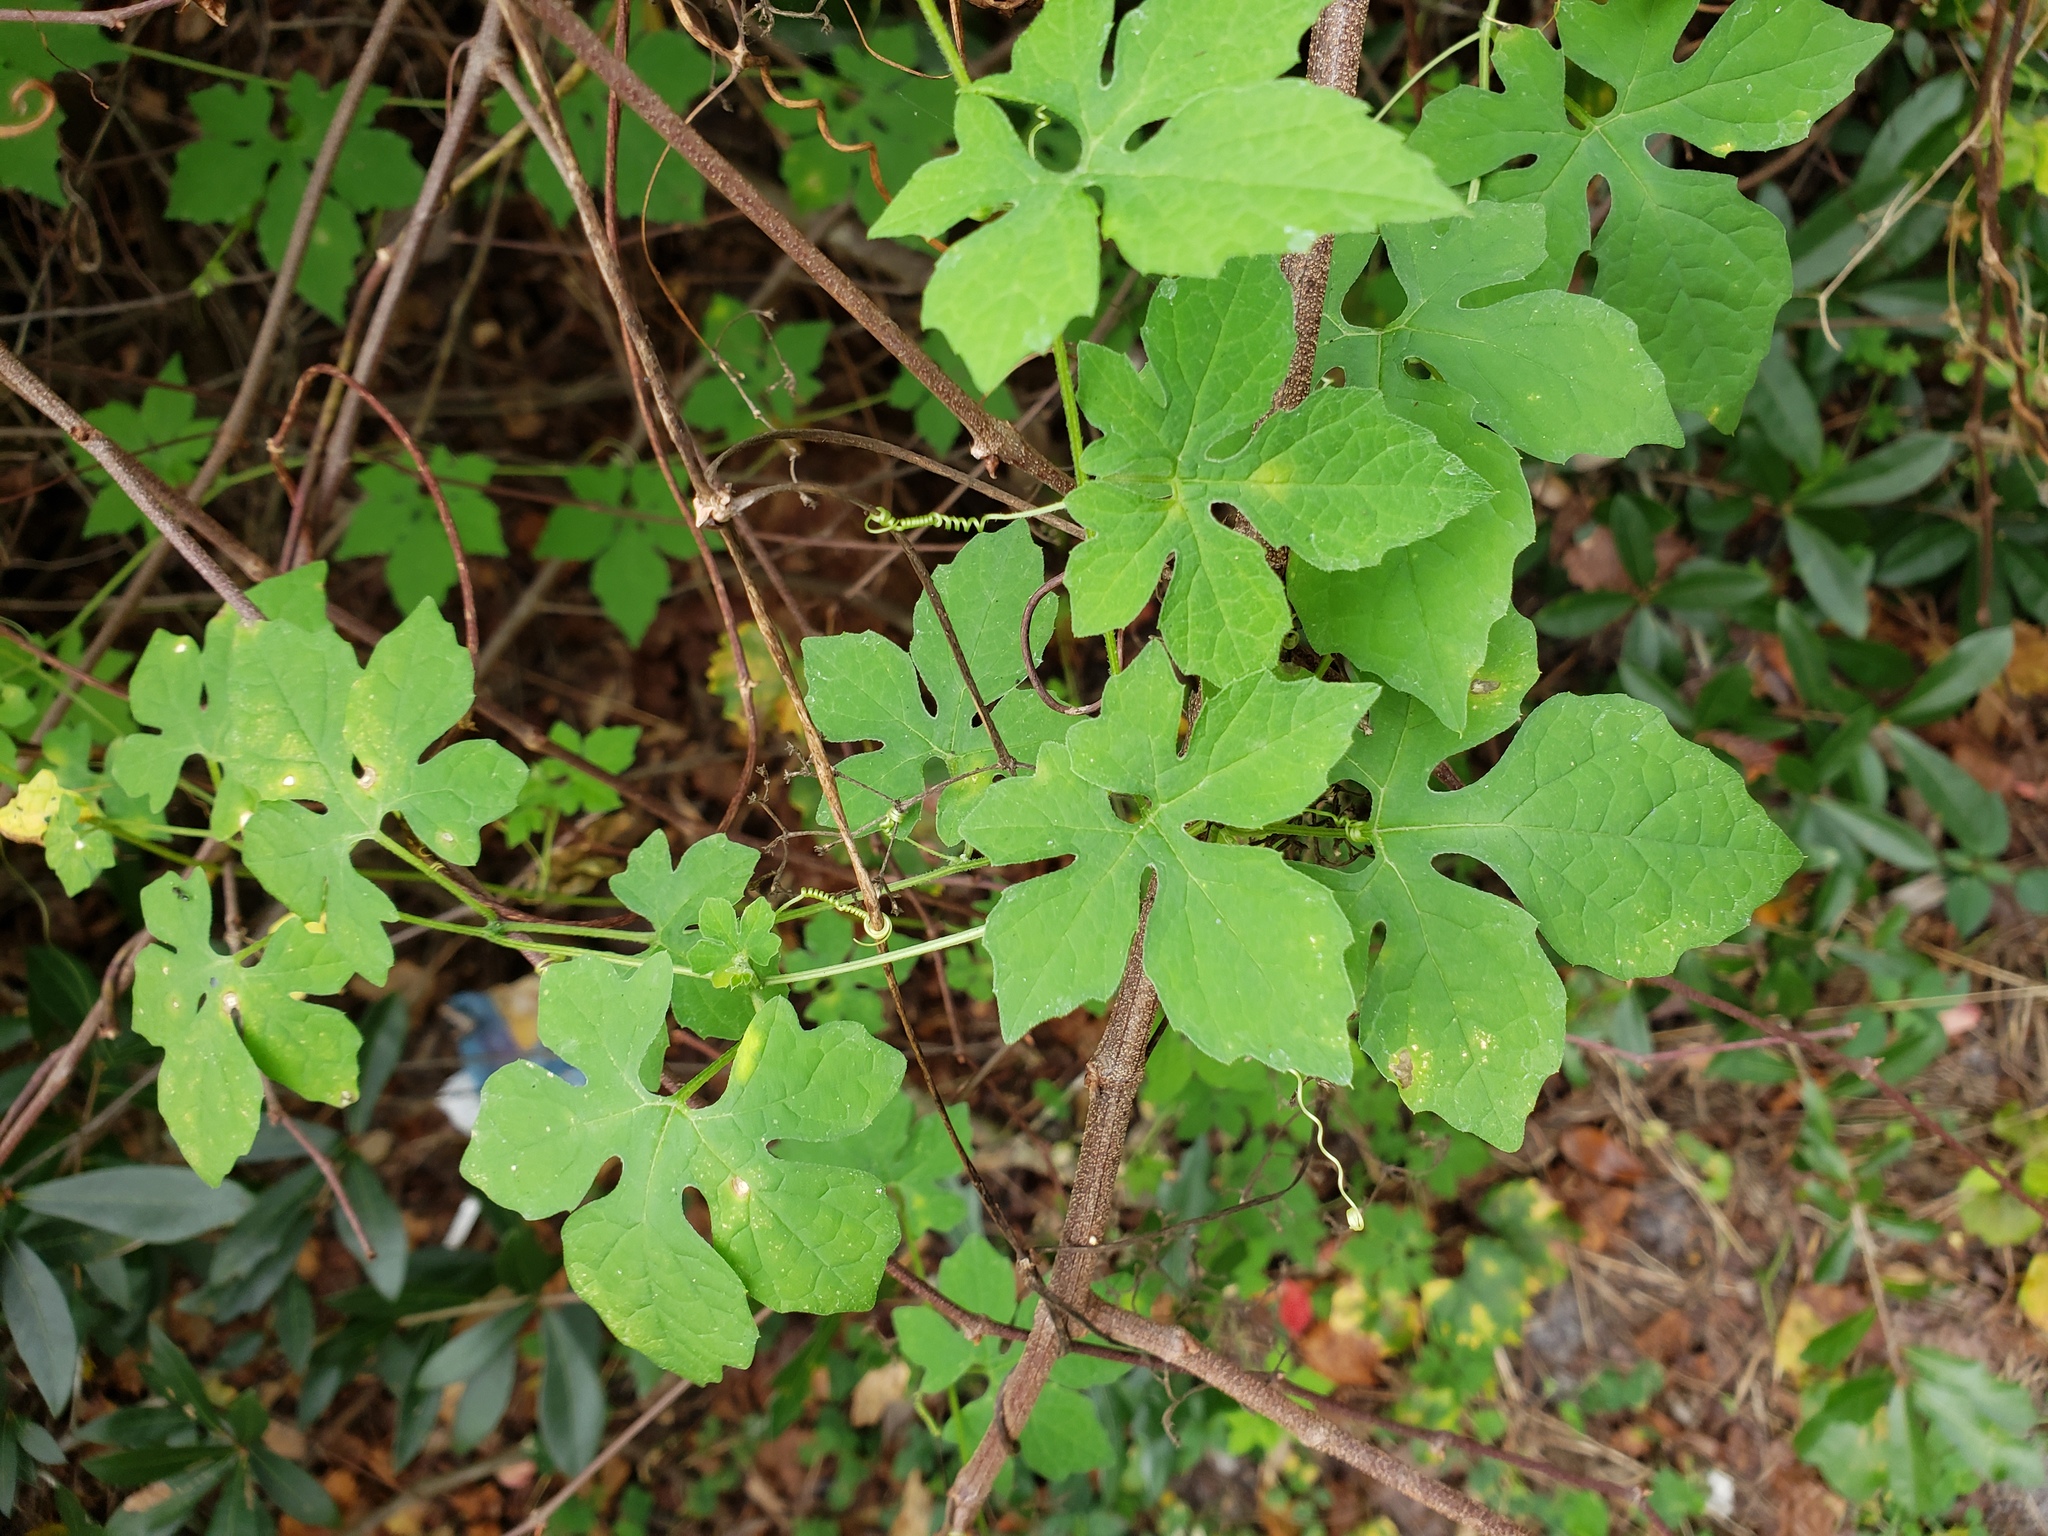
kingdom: Plantae
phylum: Tracheophyta
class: Magnoliopsida
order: Cucurbitales
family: Cucurbitaceae
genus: Momordica
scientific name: Momordica charantia
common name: Balsampear
